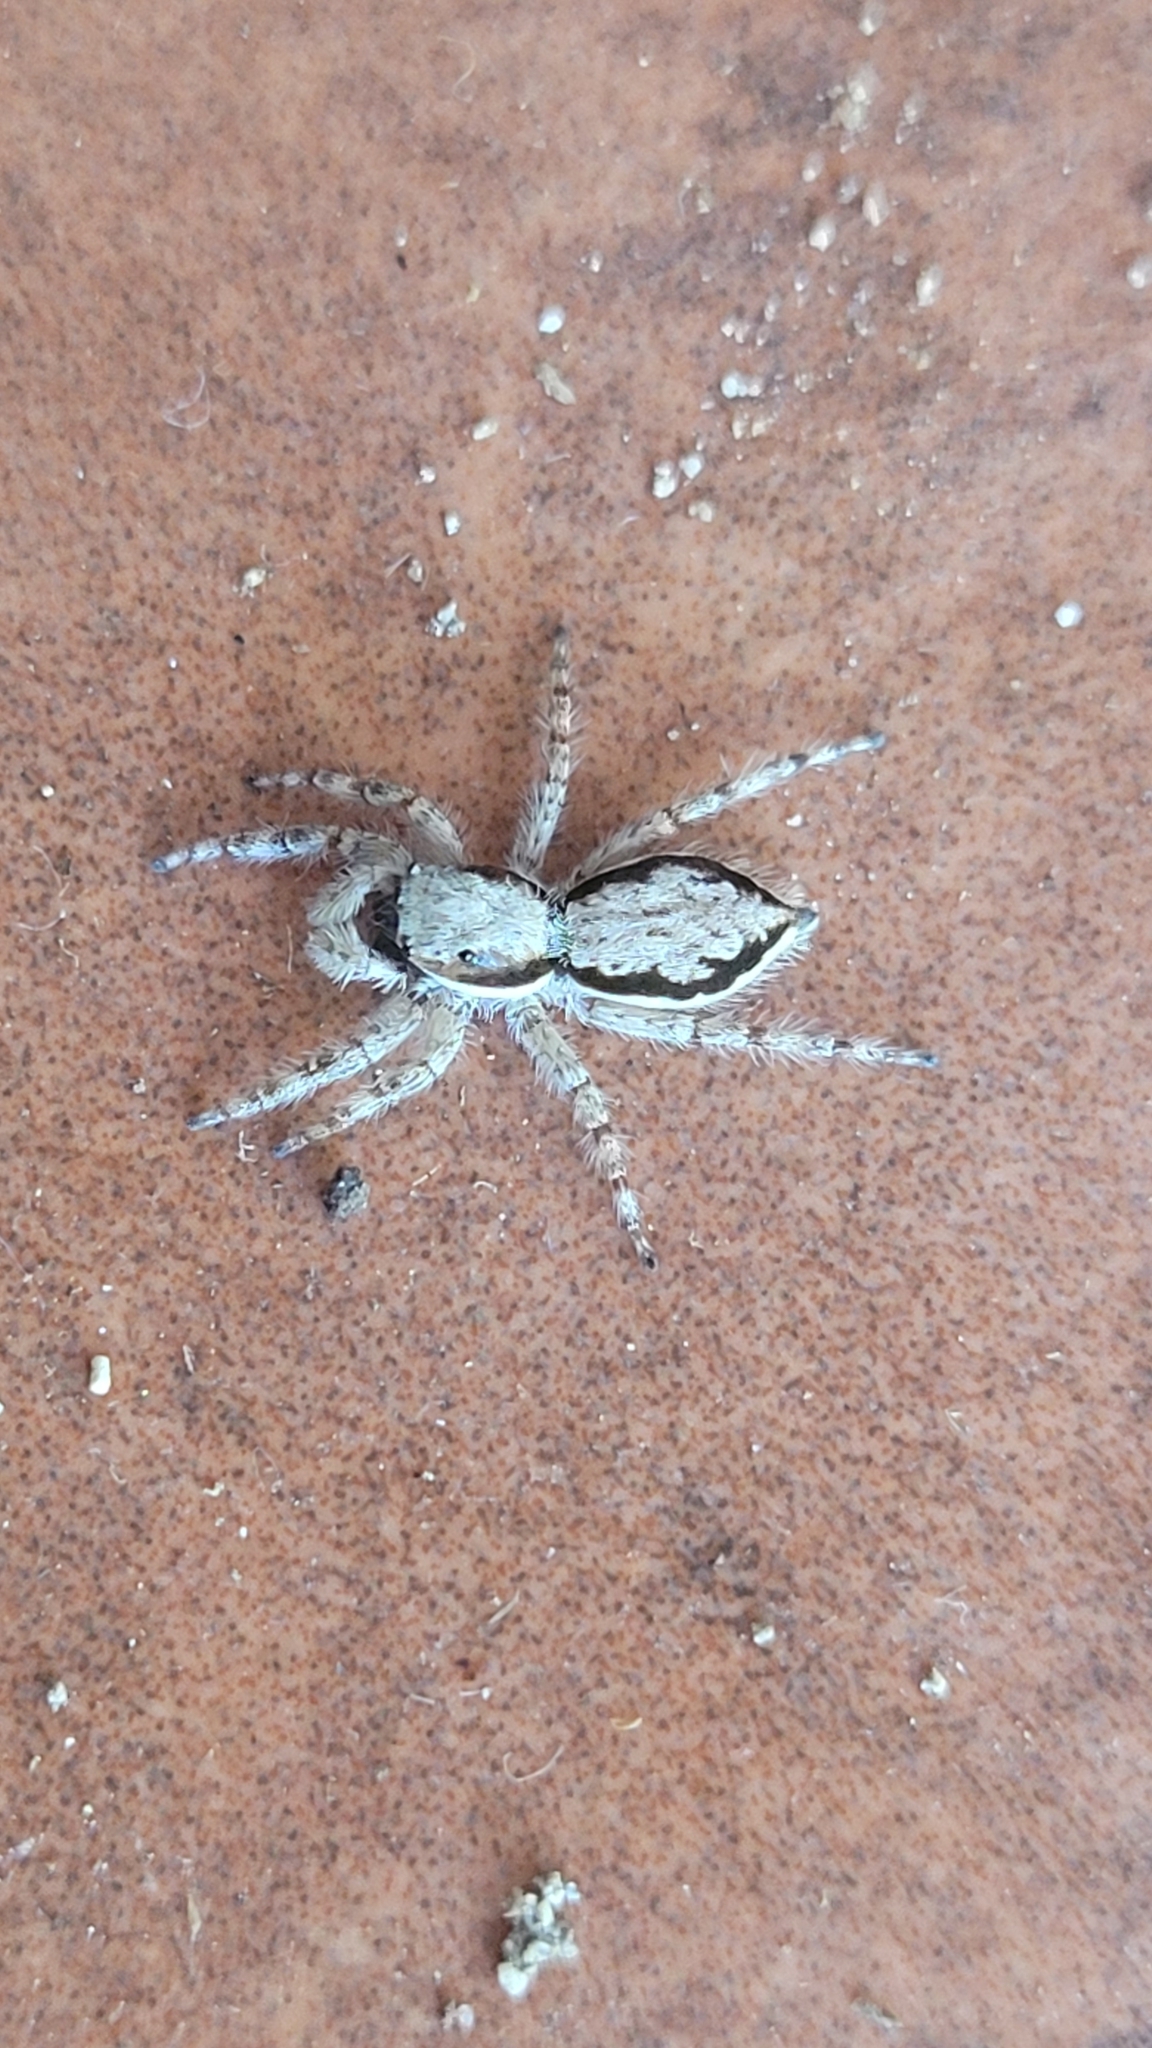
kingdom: Animalia
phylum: Arthropoda
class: Arachnida
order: Araneae
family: Salticidae
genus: Menemerus
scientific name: Menemerus bivittatus
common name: Gray wall jumper
